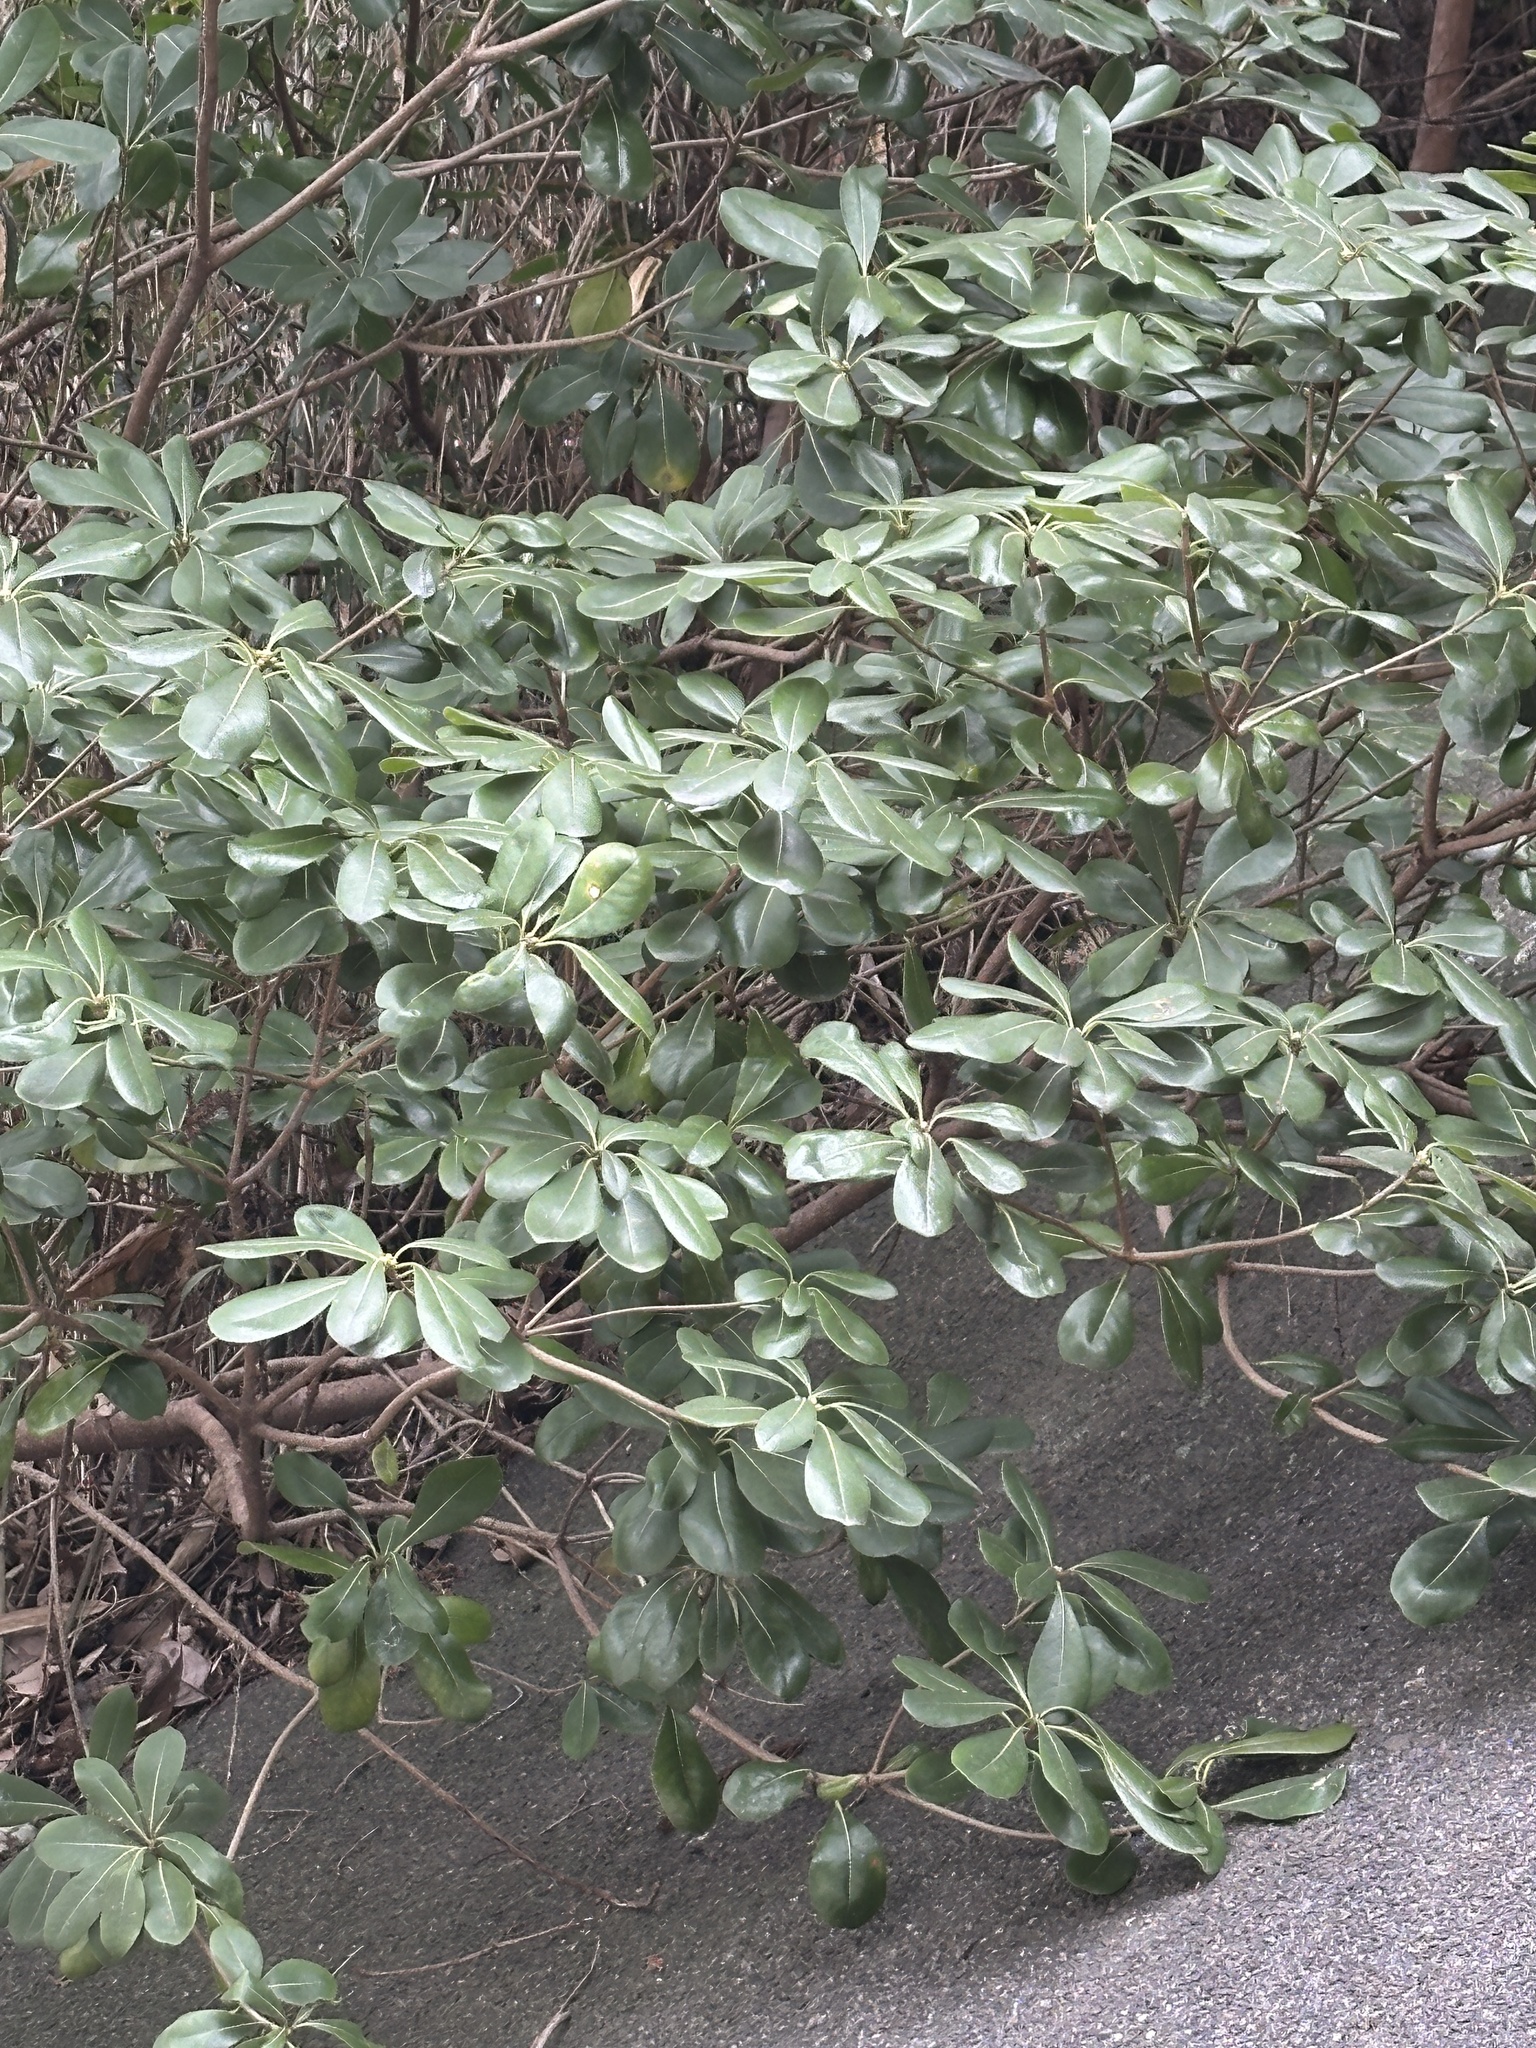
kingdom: Plantae
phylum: Tracheophyta
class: Magnoliopsida
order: Apiales
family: Pittosporaceae
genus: Pittosporum
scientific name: Pittosporum tobira
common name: Japanese cheesewood
